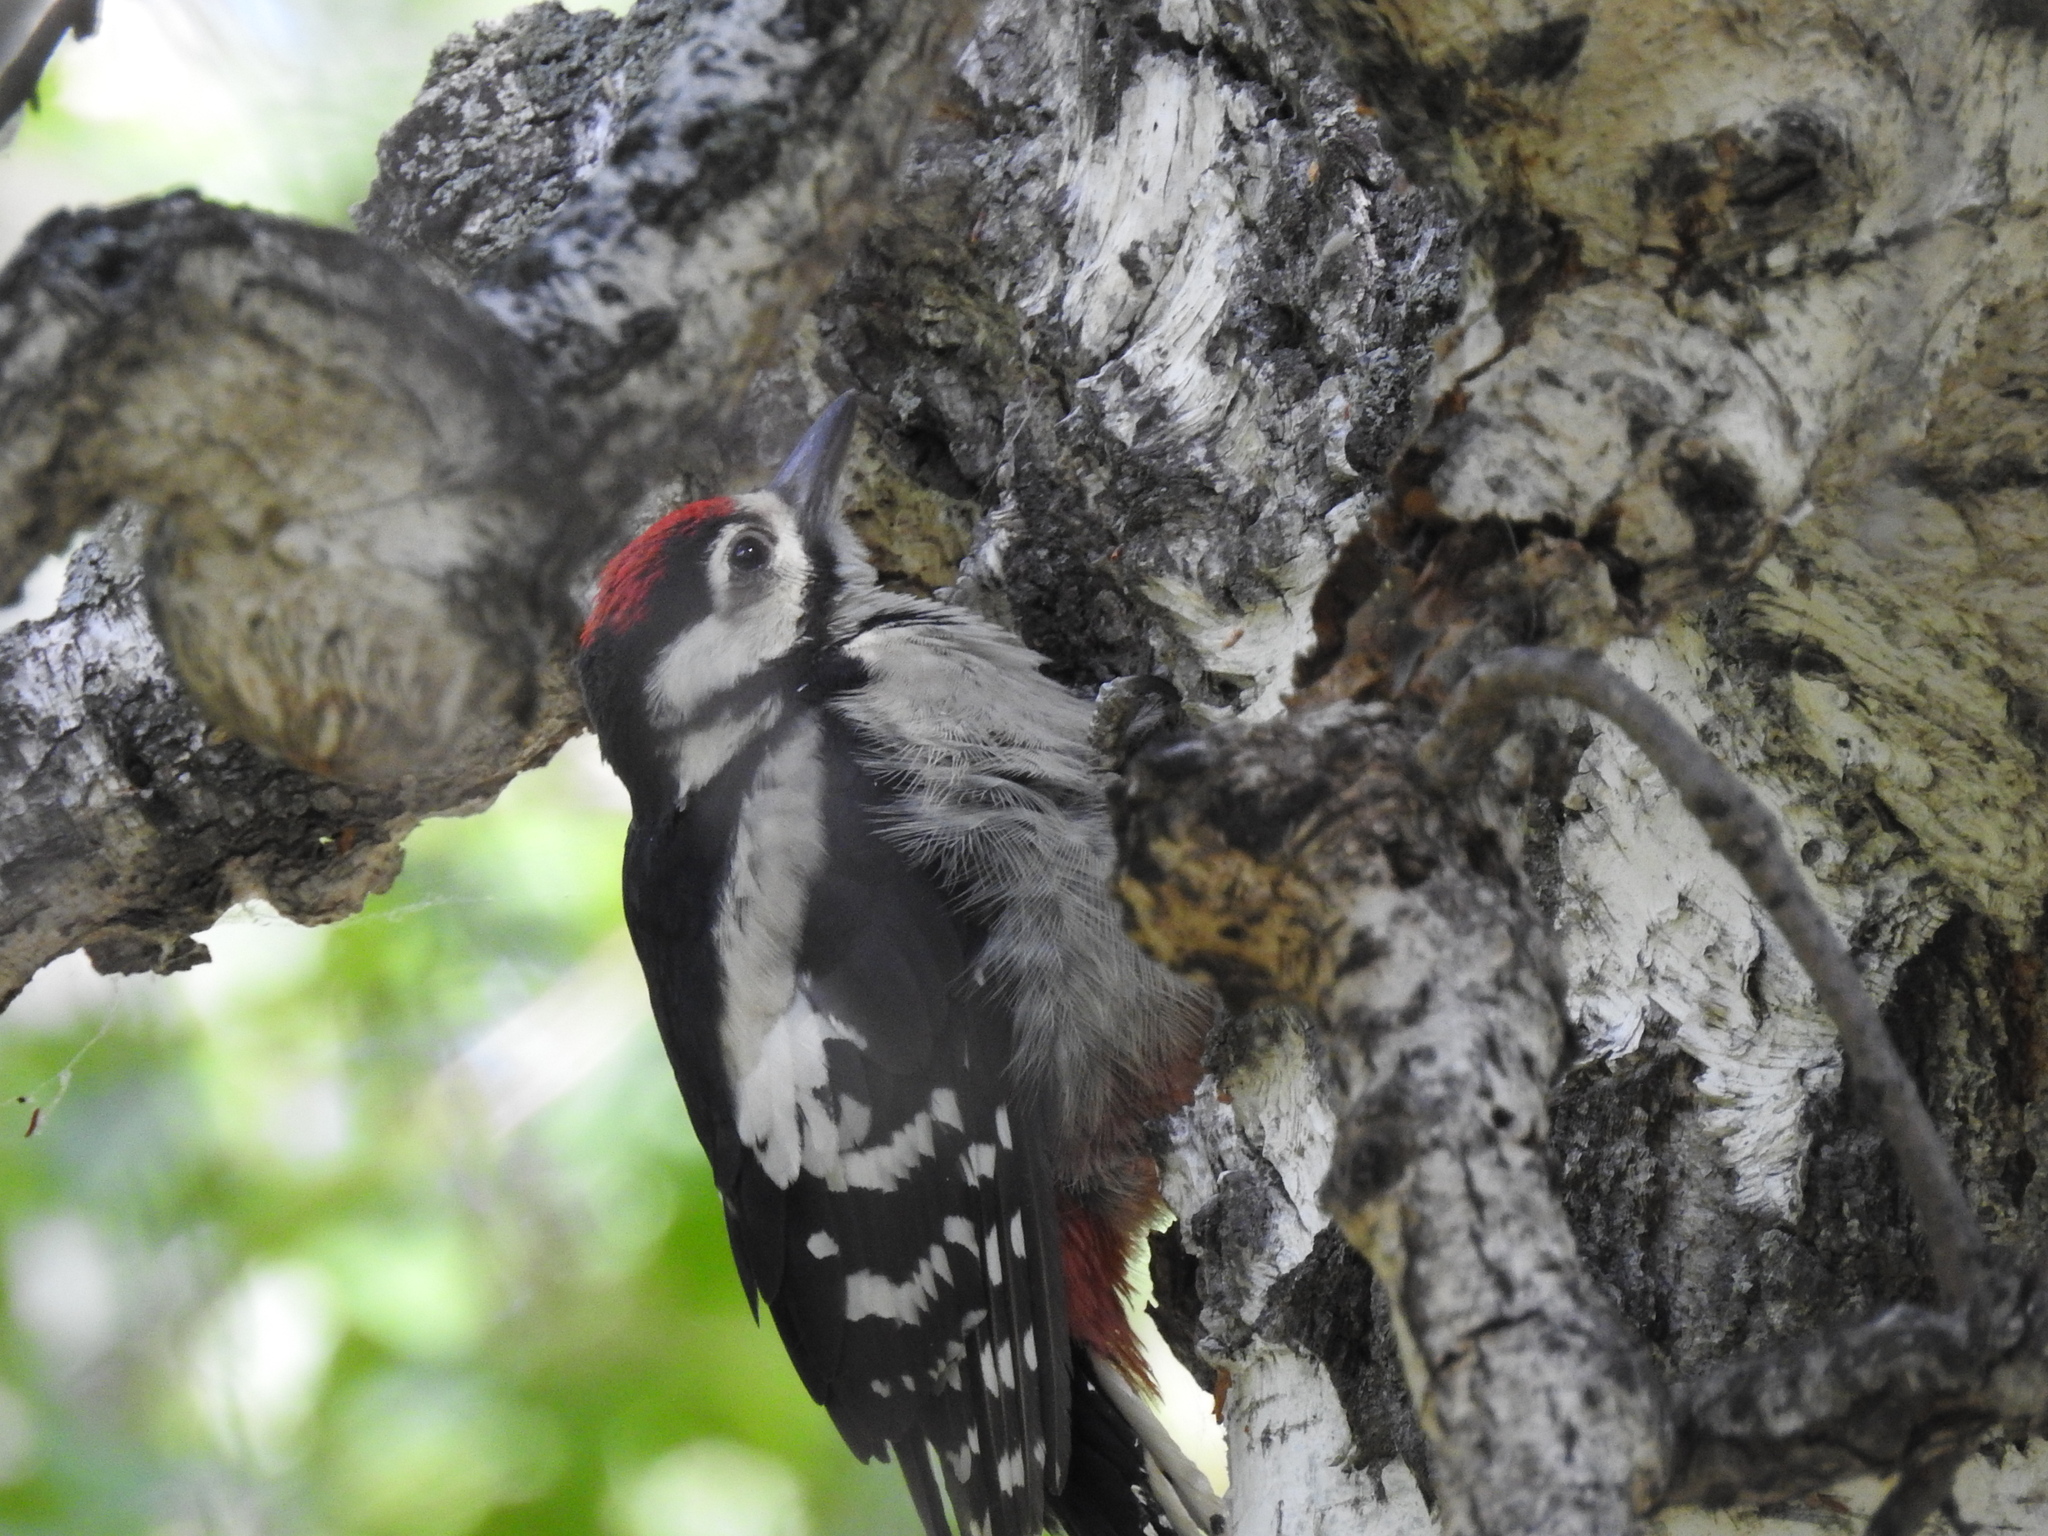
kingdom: Animalia
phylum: Chordata
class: Aves
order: Piciformes
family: Picidae
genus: Dendrocopos
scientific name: Dendrocopos major
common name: Great spotted woodpecker
